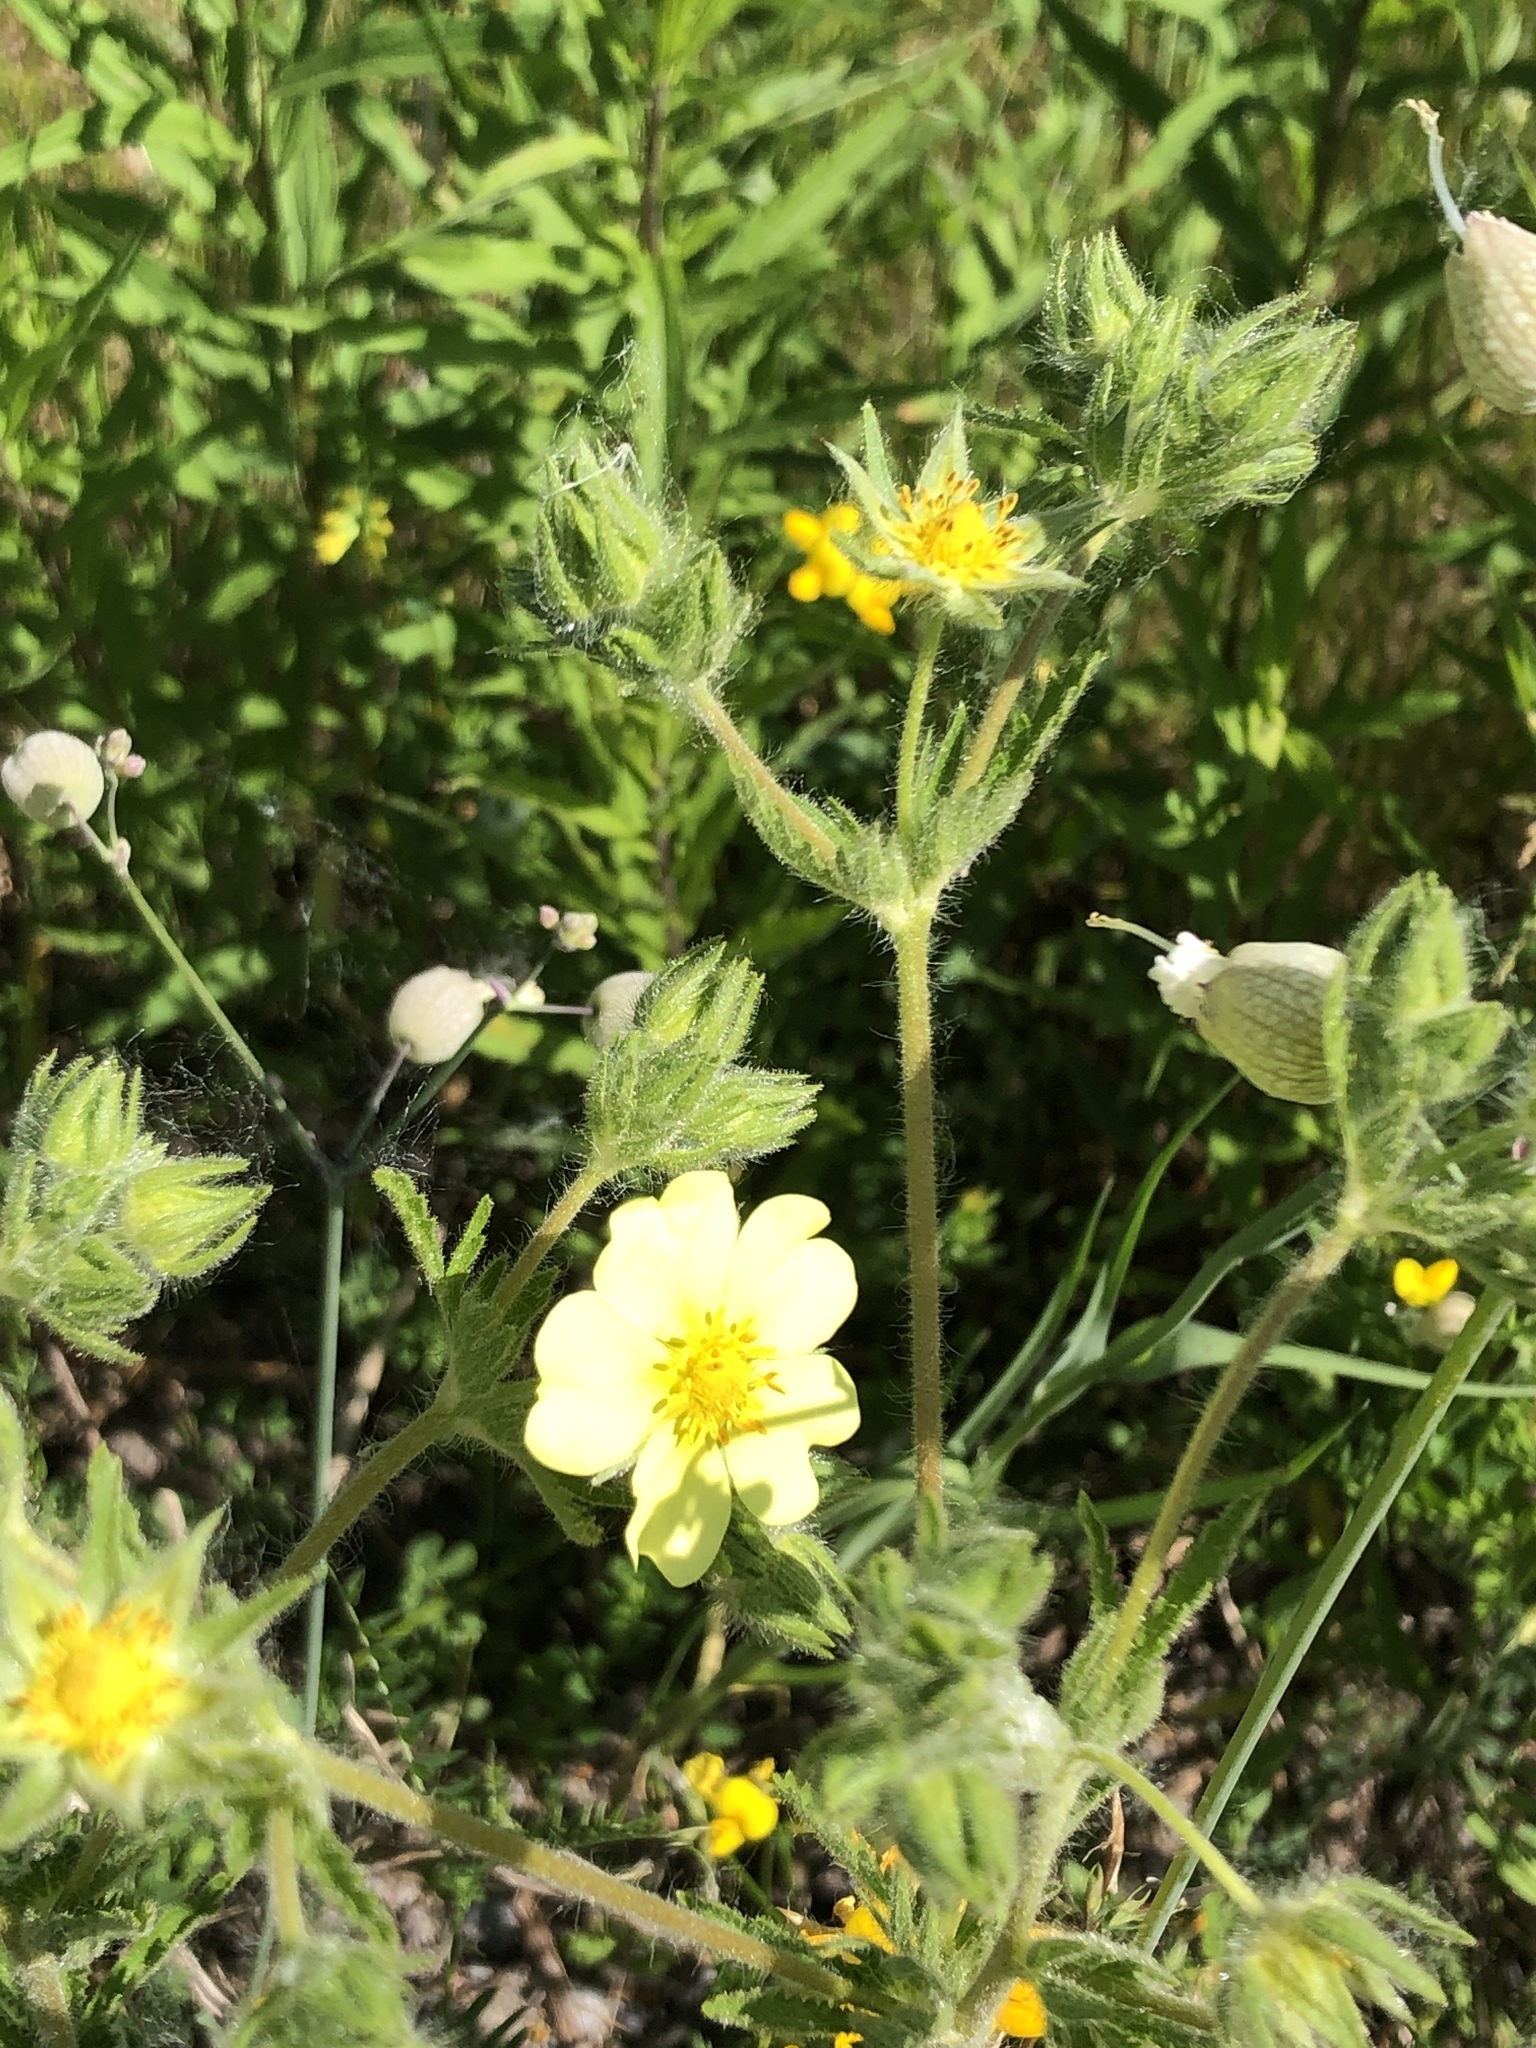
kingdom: Plantae
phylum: Tracheophyta
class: Magnoliopsida
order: Rosales
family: Rosaceae
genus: Potentilla
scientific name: Potentilla recta
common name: Sulphur cinquefoil
